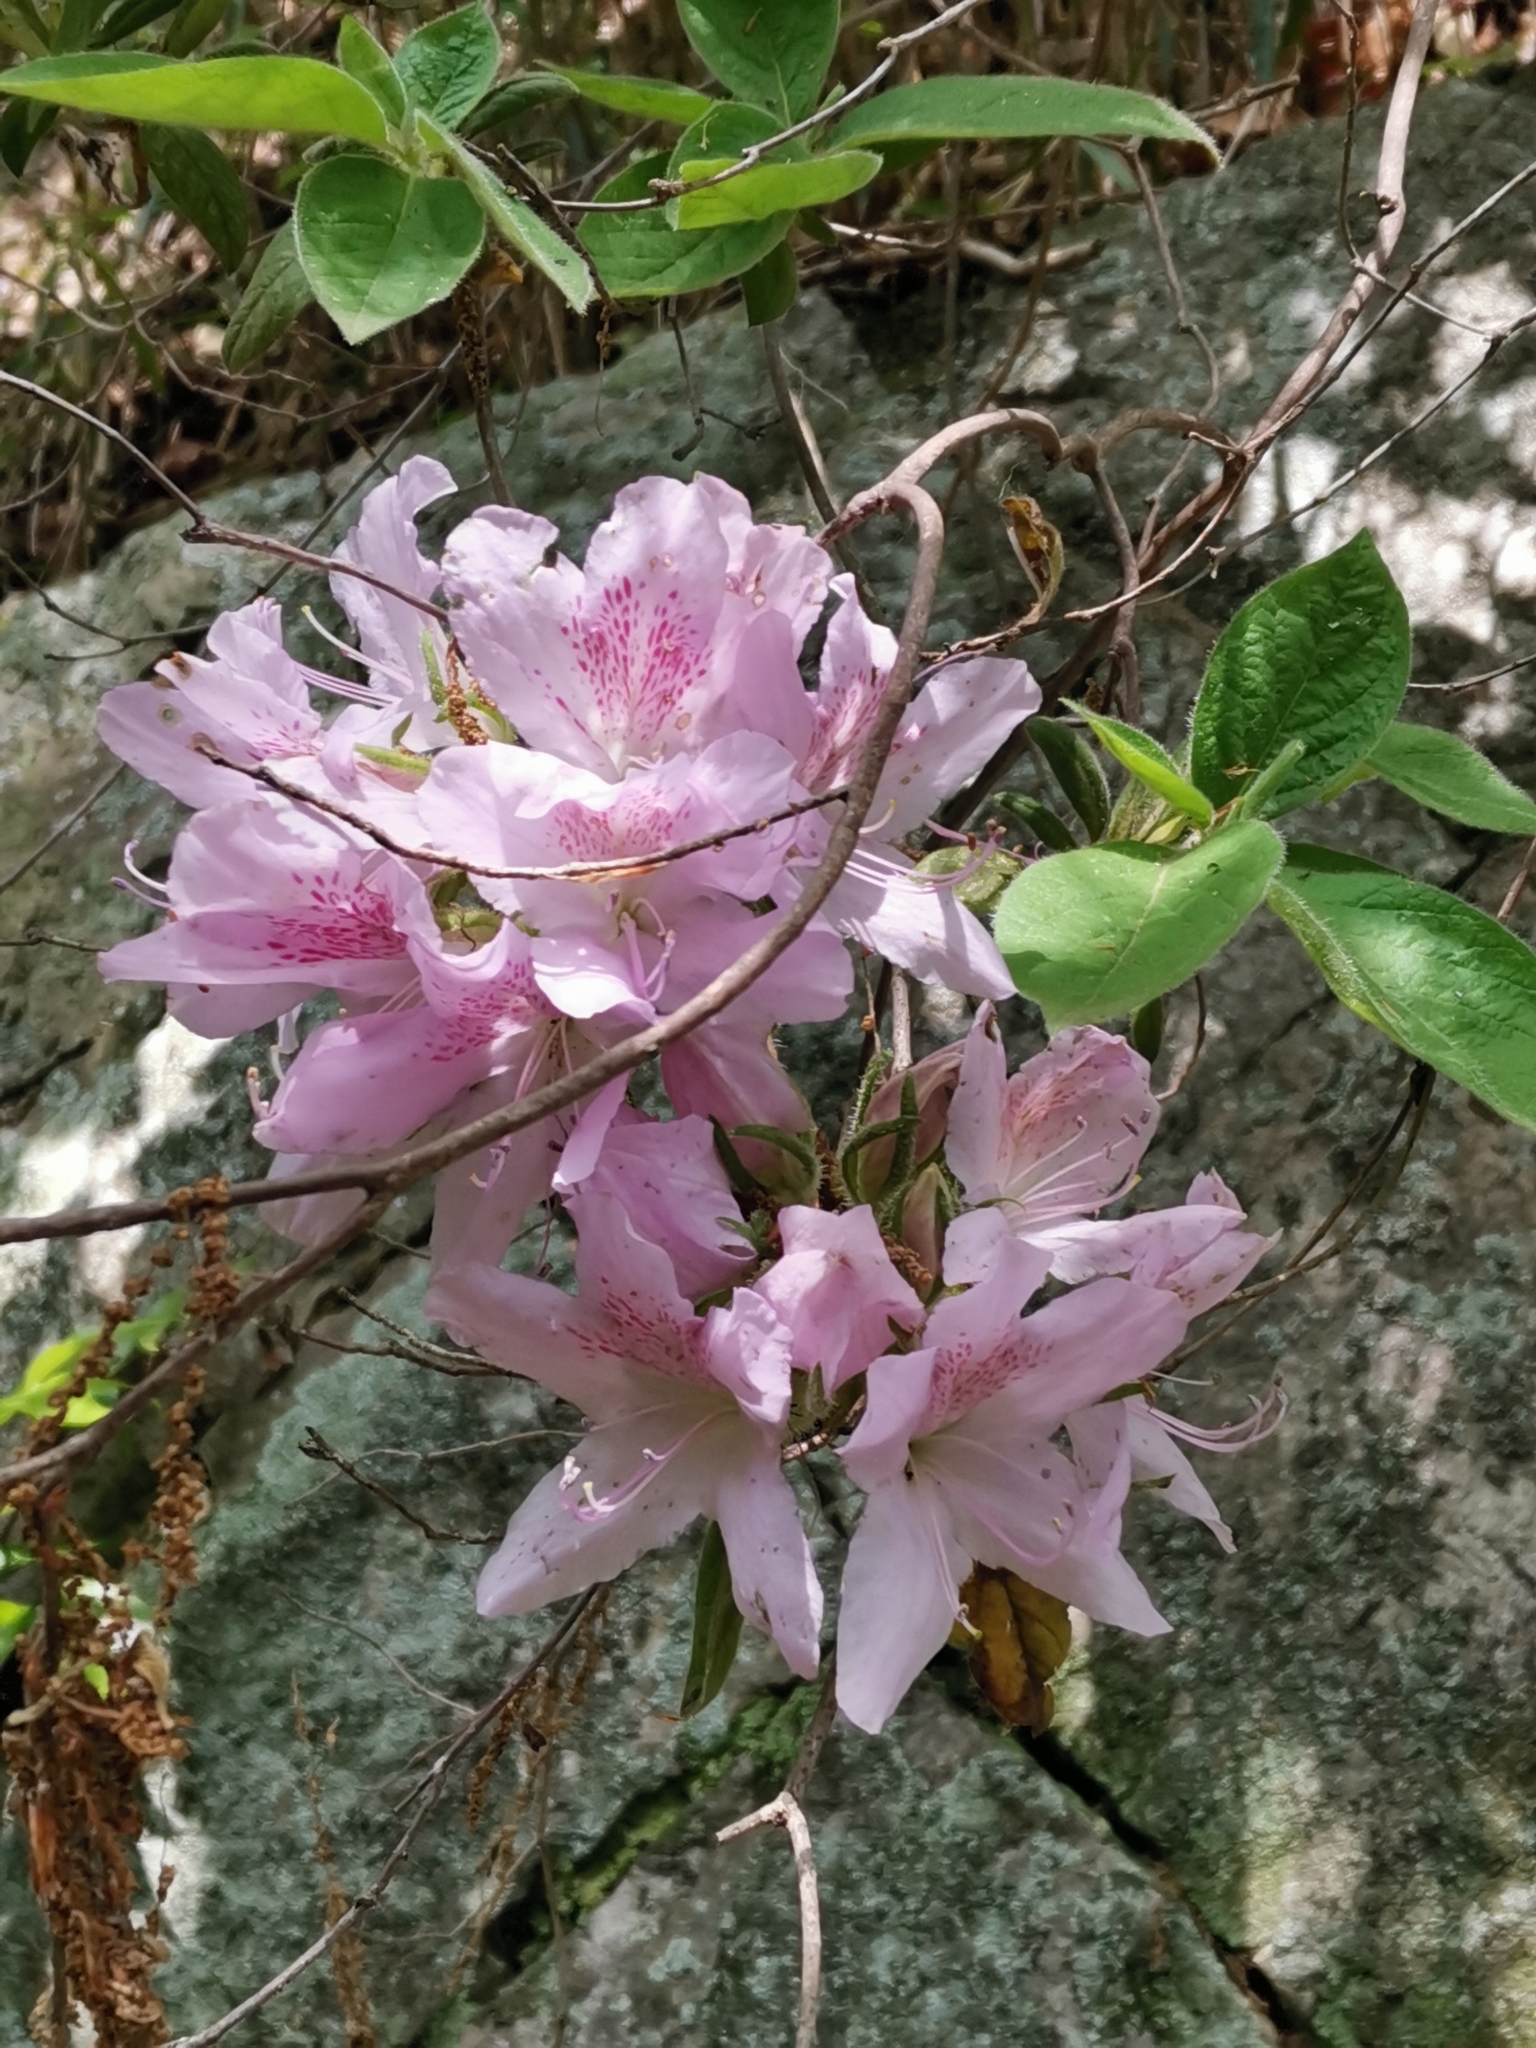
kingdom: Plantae
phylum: Tracheophyta
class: Magnoliopsida
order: Ericales
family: Ericaceae
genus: Rhododendron
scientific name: Rhododendron stenopetalum
